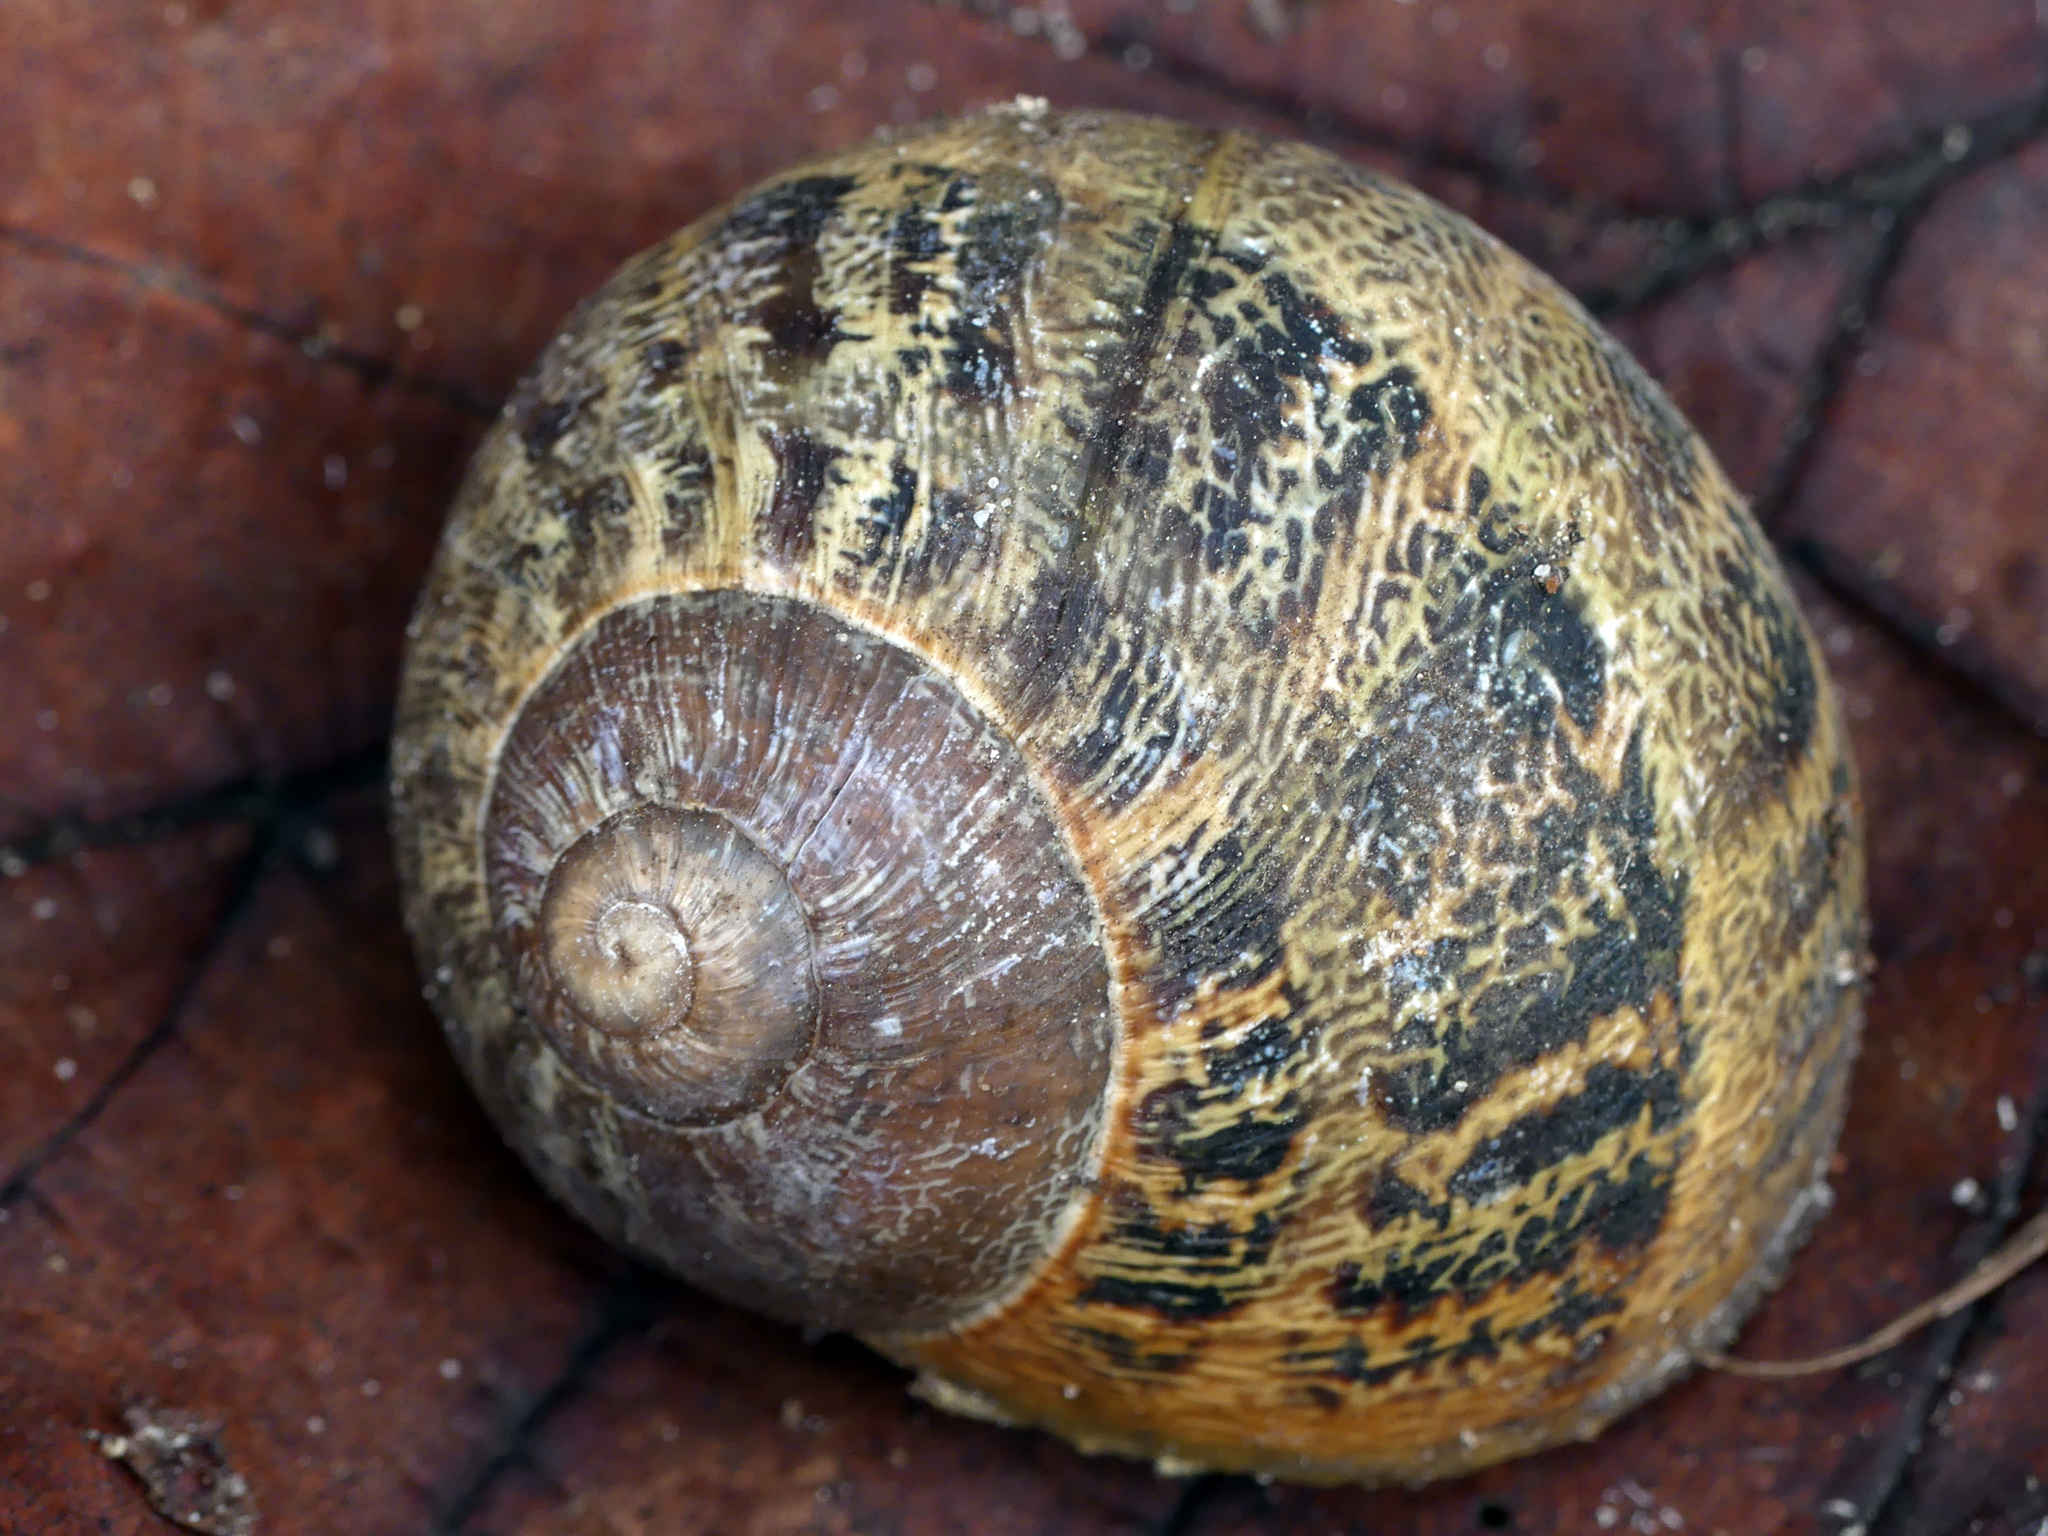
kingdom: Animalia
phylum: Mollusca
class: Gastropoda
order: Stylommatophora
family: Helicidae
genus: Cornu
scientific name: Cornu aspersum
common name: Brown garden snail
